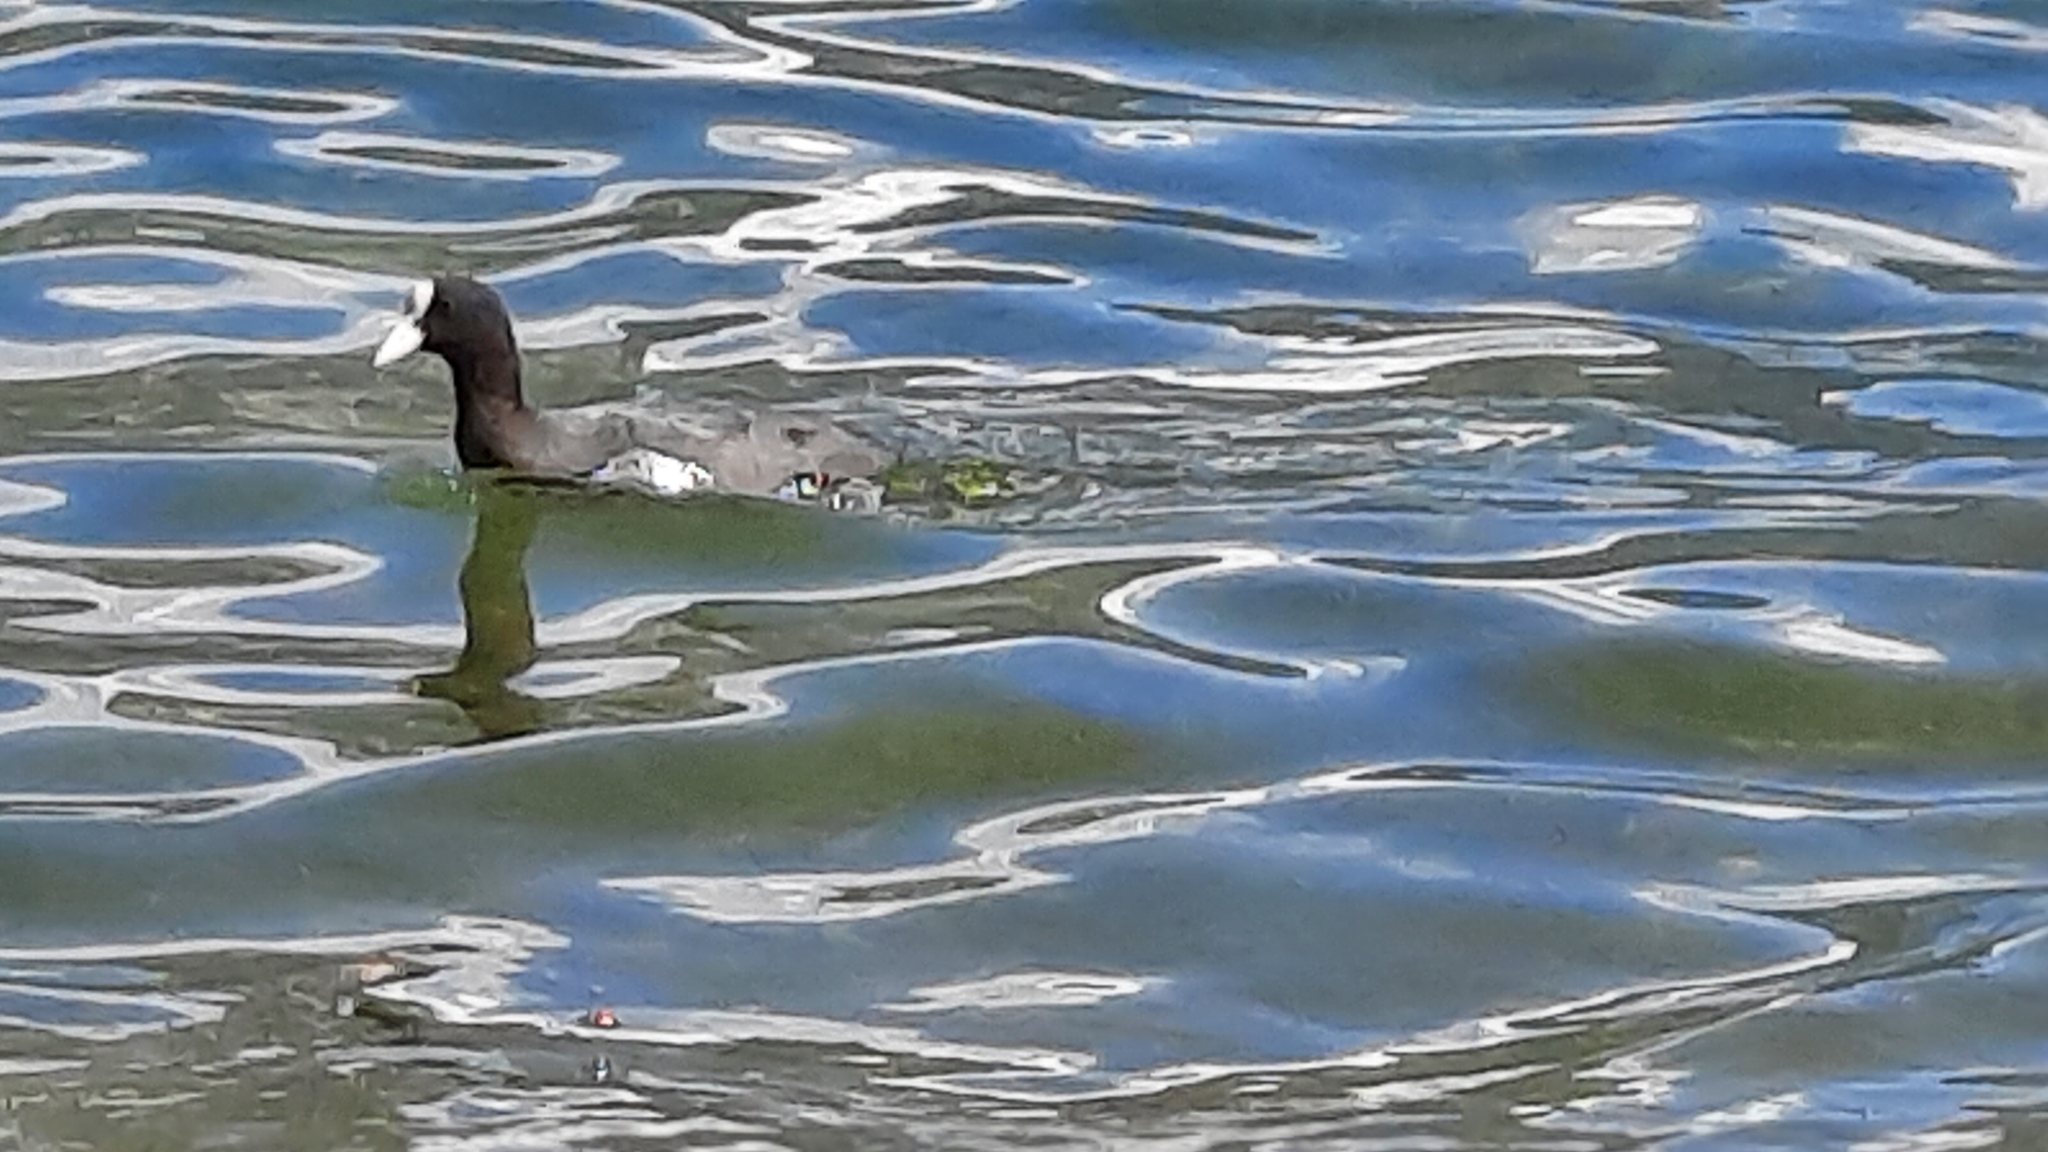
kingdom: Animalia
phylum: Chordata
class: Aves
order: Gruiformes
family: Rallidae
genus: Fulica
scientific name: Fulica atra
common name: Eurasian coot
